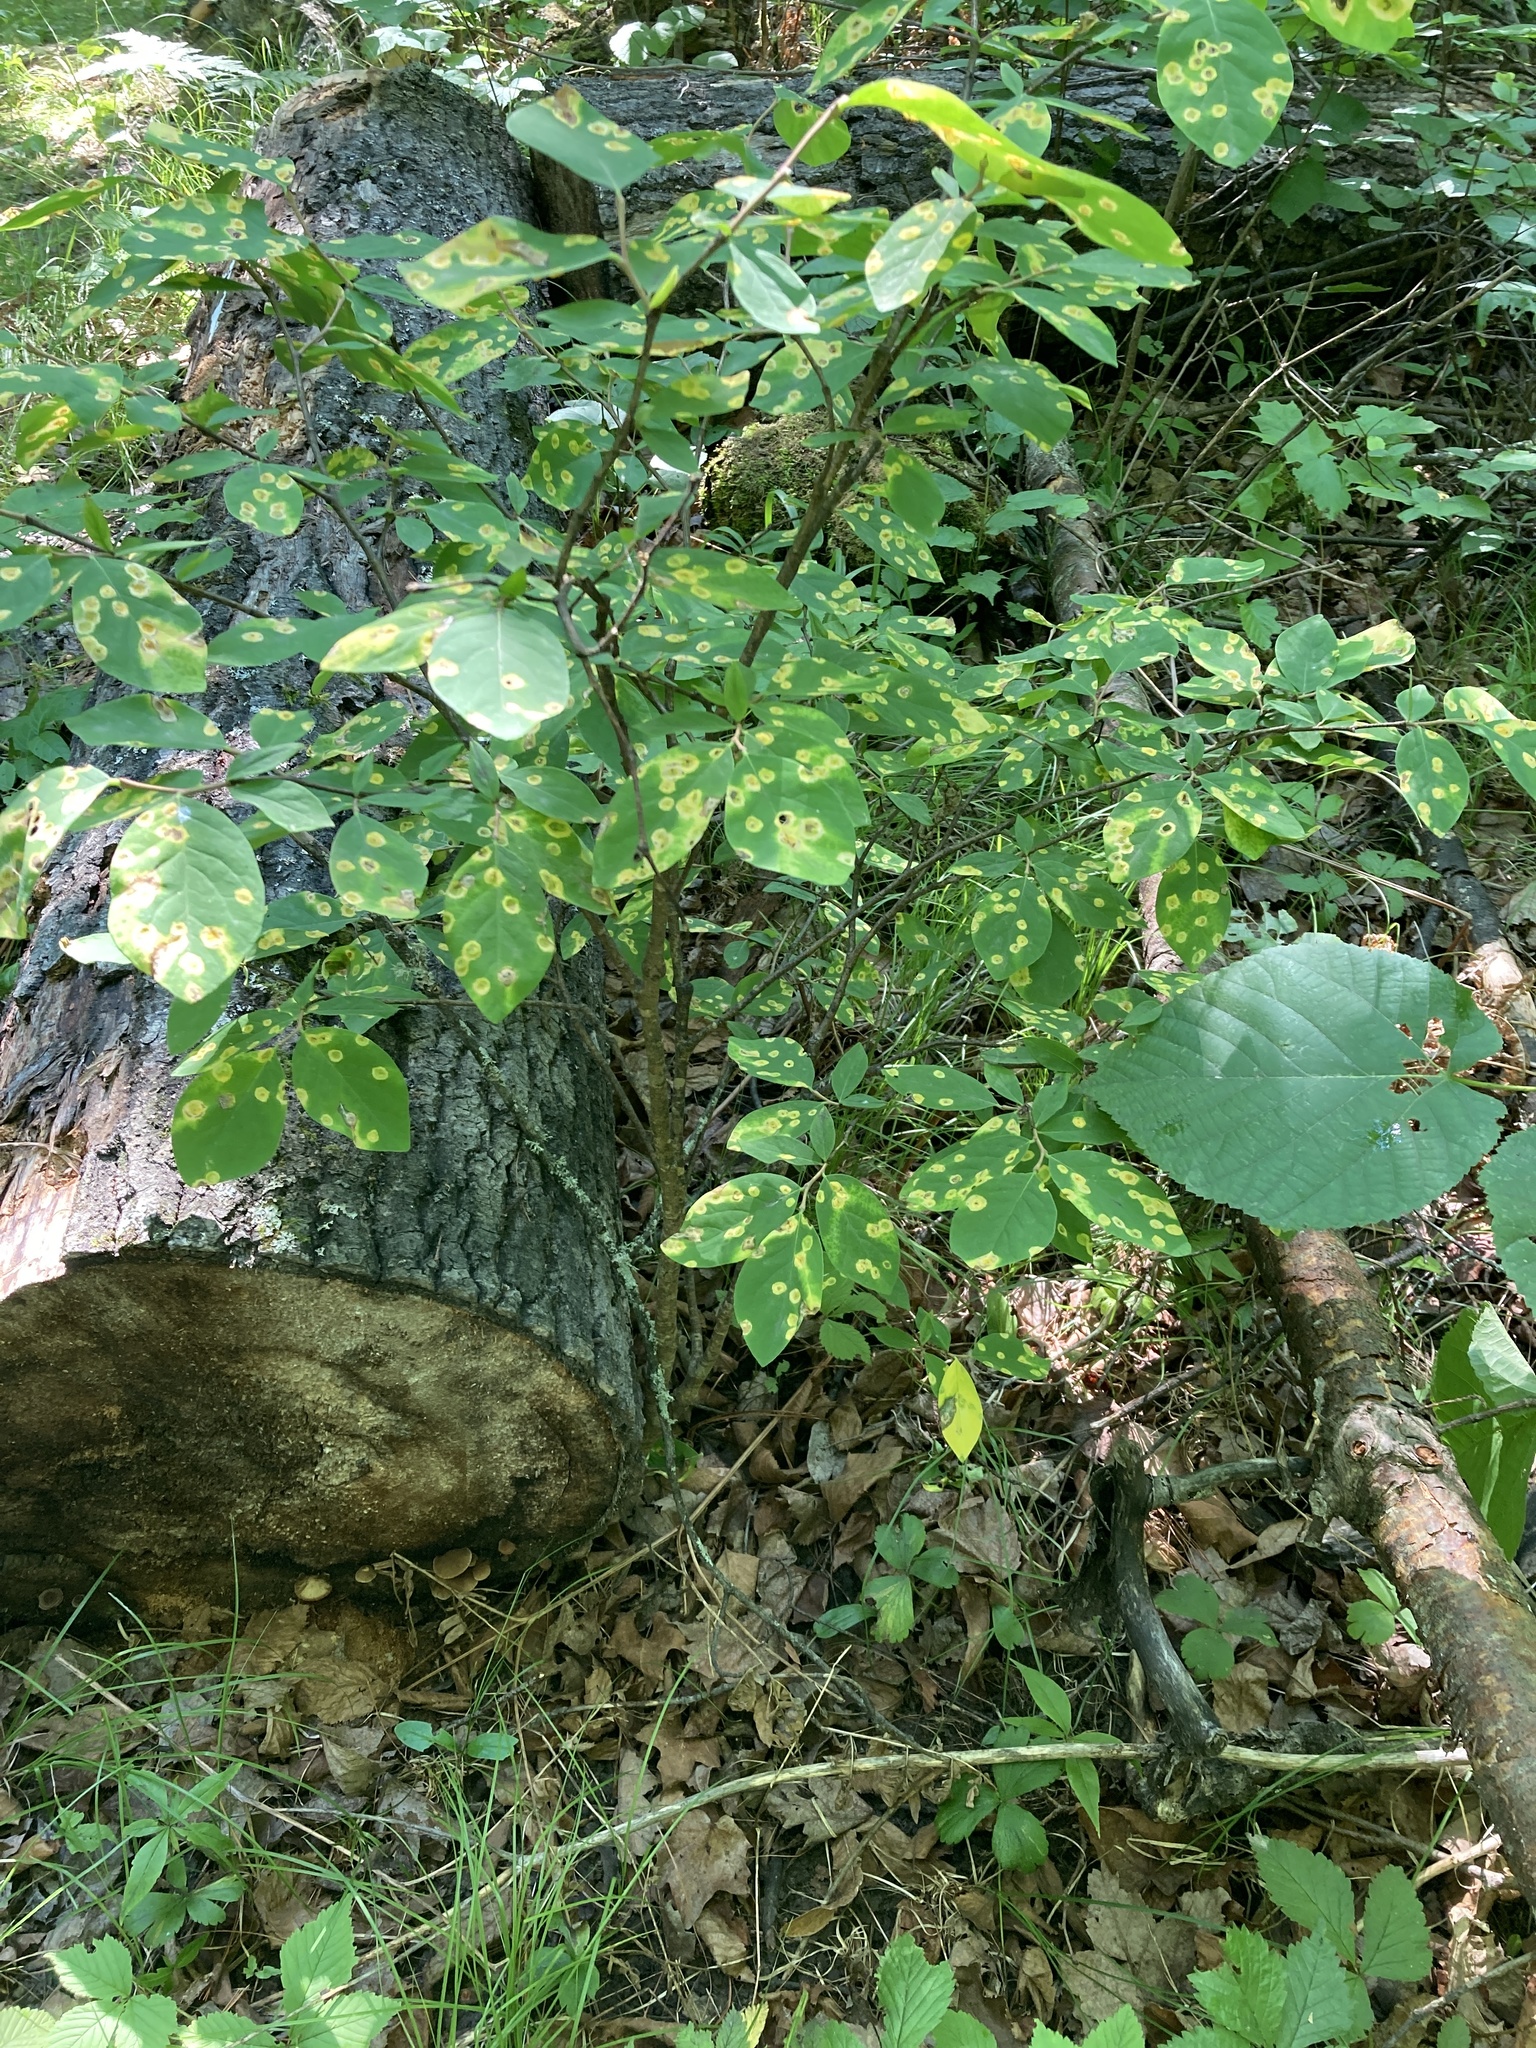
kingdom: Plantae
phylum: Tracheophyta
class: Magnoliopsida
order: Malvales
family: Thymelaeaceae
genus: Dirca
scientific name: Dirca palustris
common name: Leatherwood
